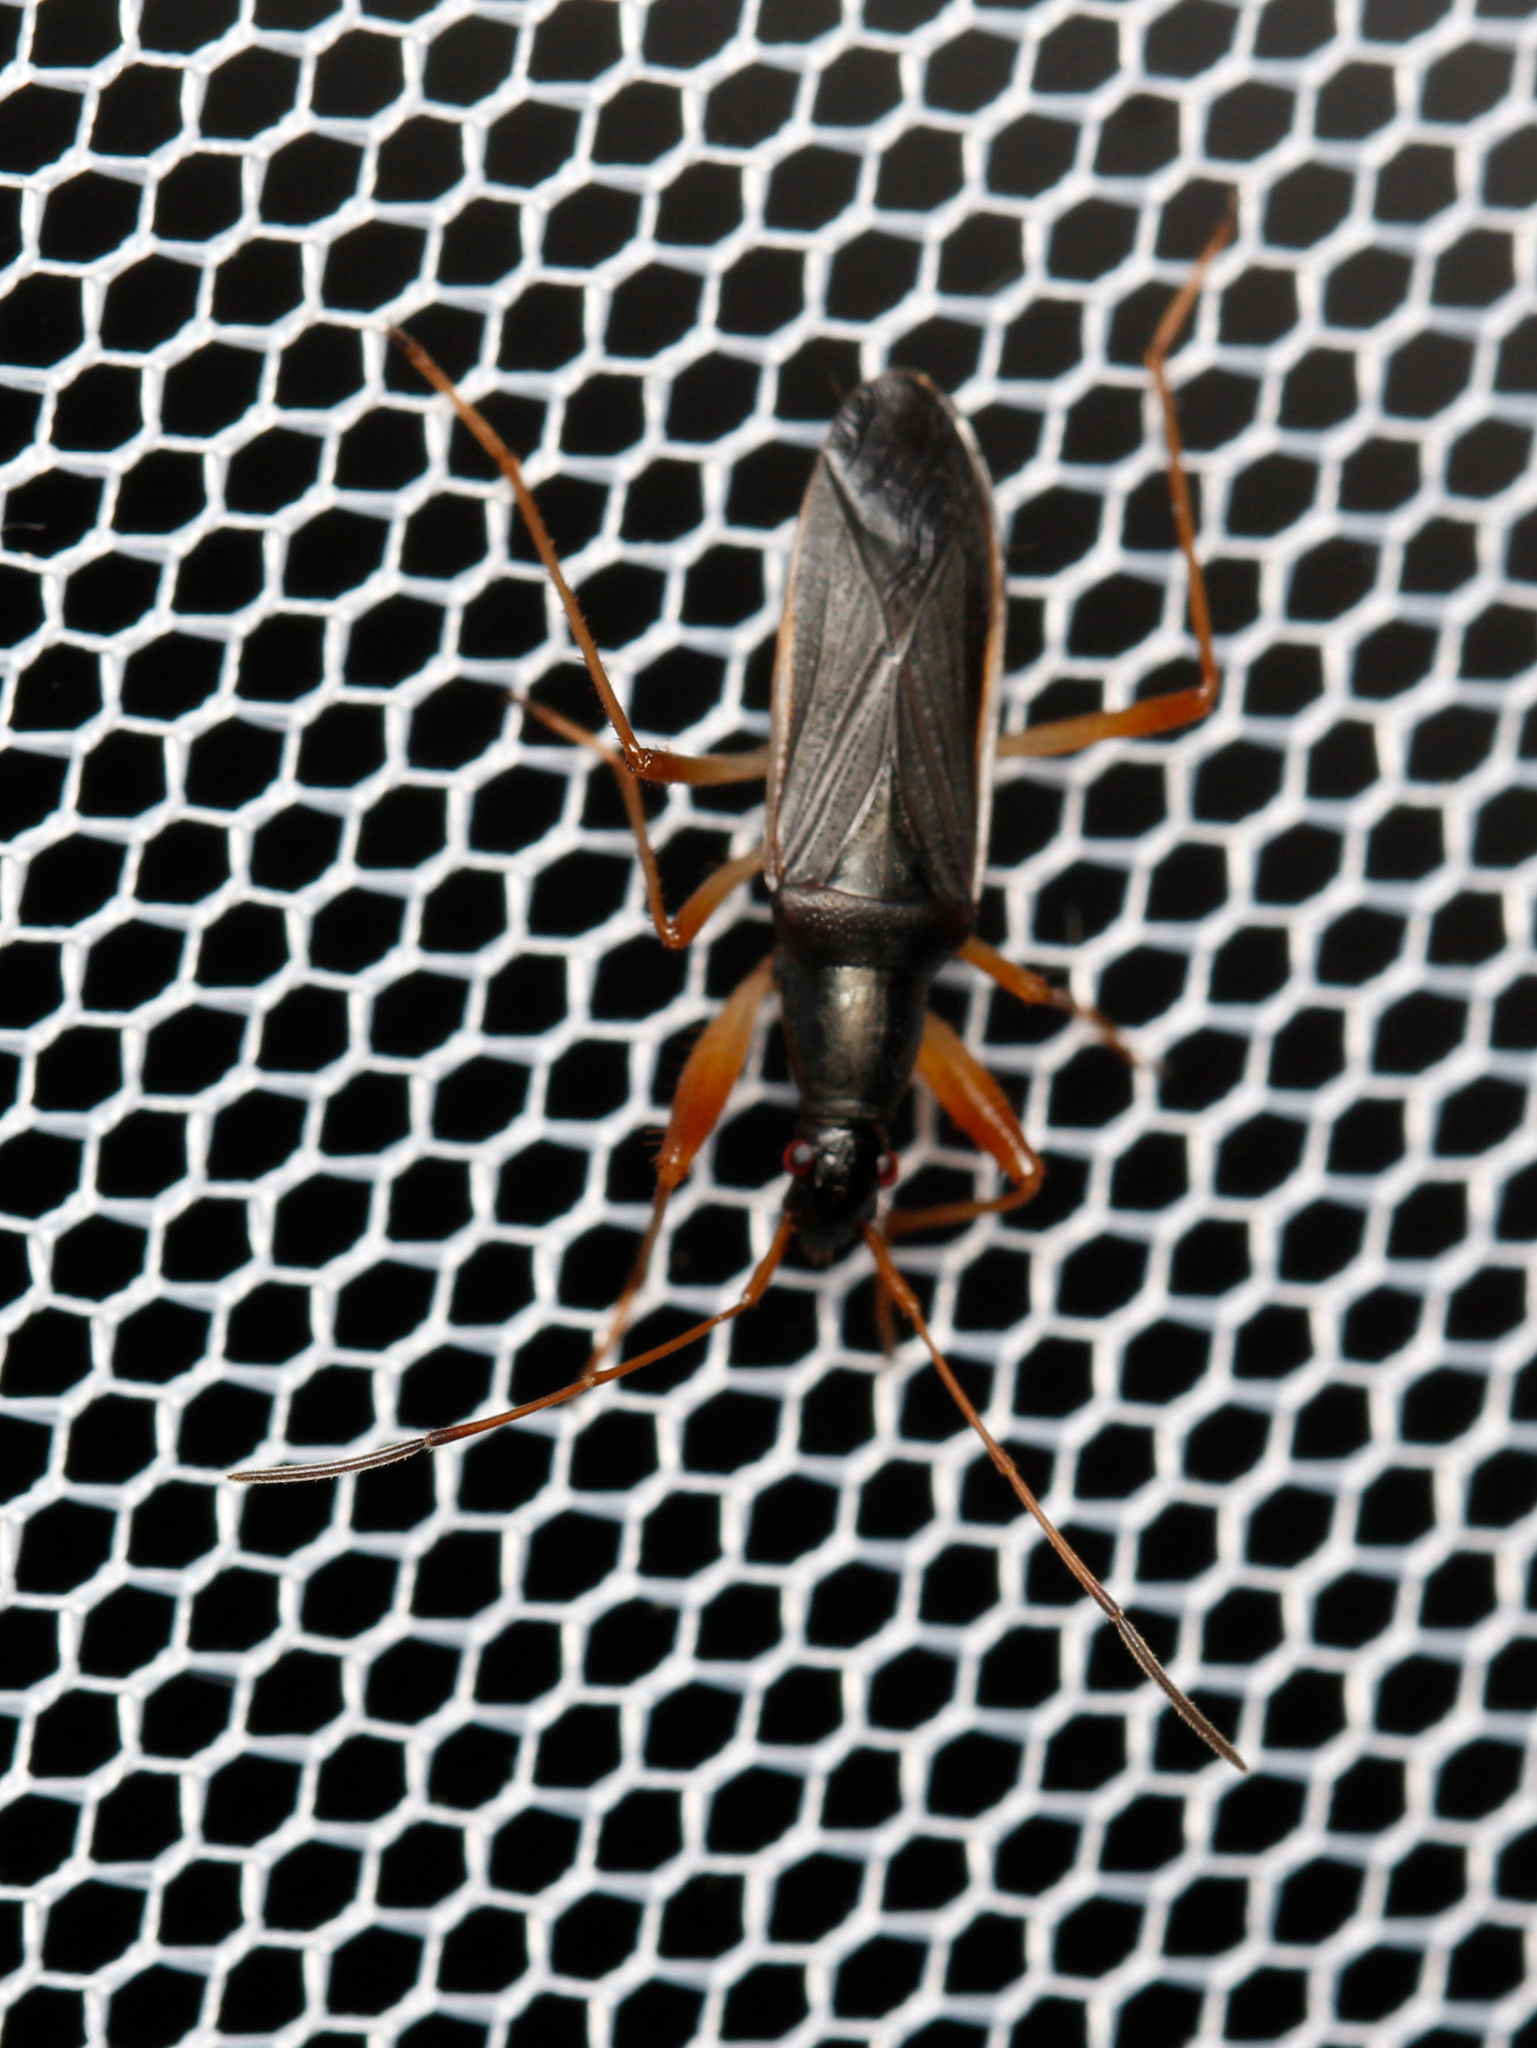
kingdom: Animalia
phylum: Arthropoda
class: Insecta
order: Hemiptera
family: Rhyparochromidae
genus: Cnemodus
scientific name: Cnemodus mavortius
